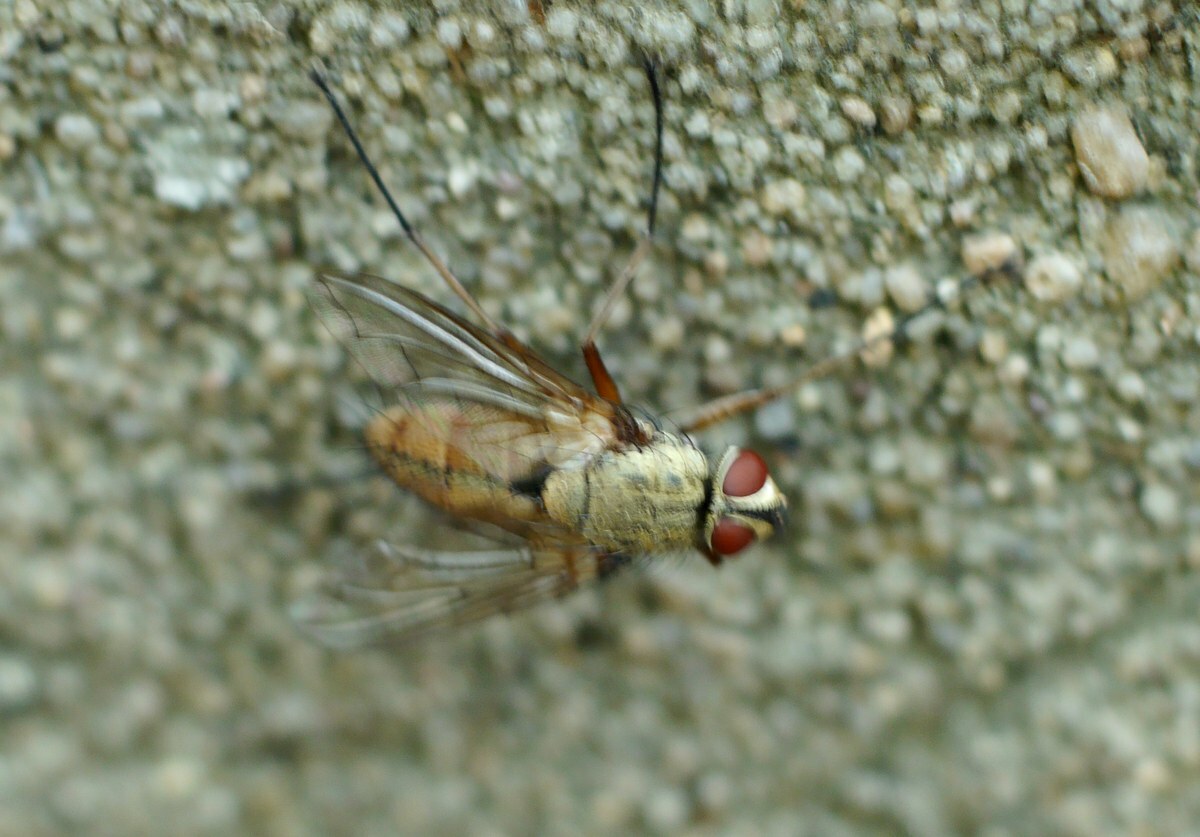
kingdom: Animalia
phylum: Arthropoda
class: Insecta
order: Diptera
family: Tachinidae
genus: Dexia
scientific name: Dexia rustica
